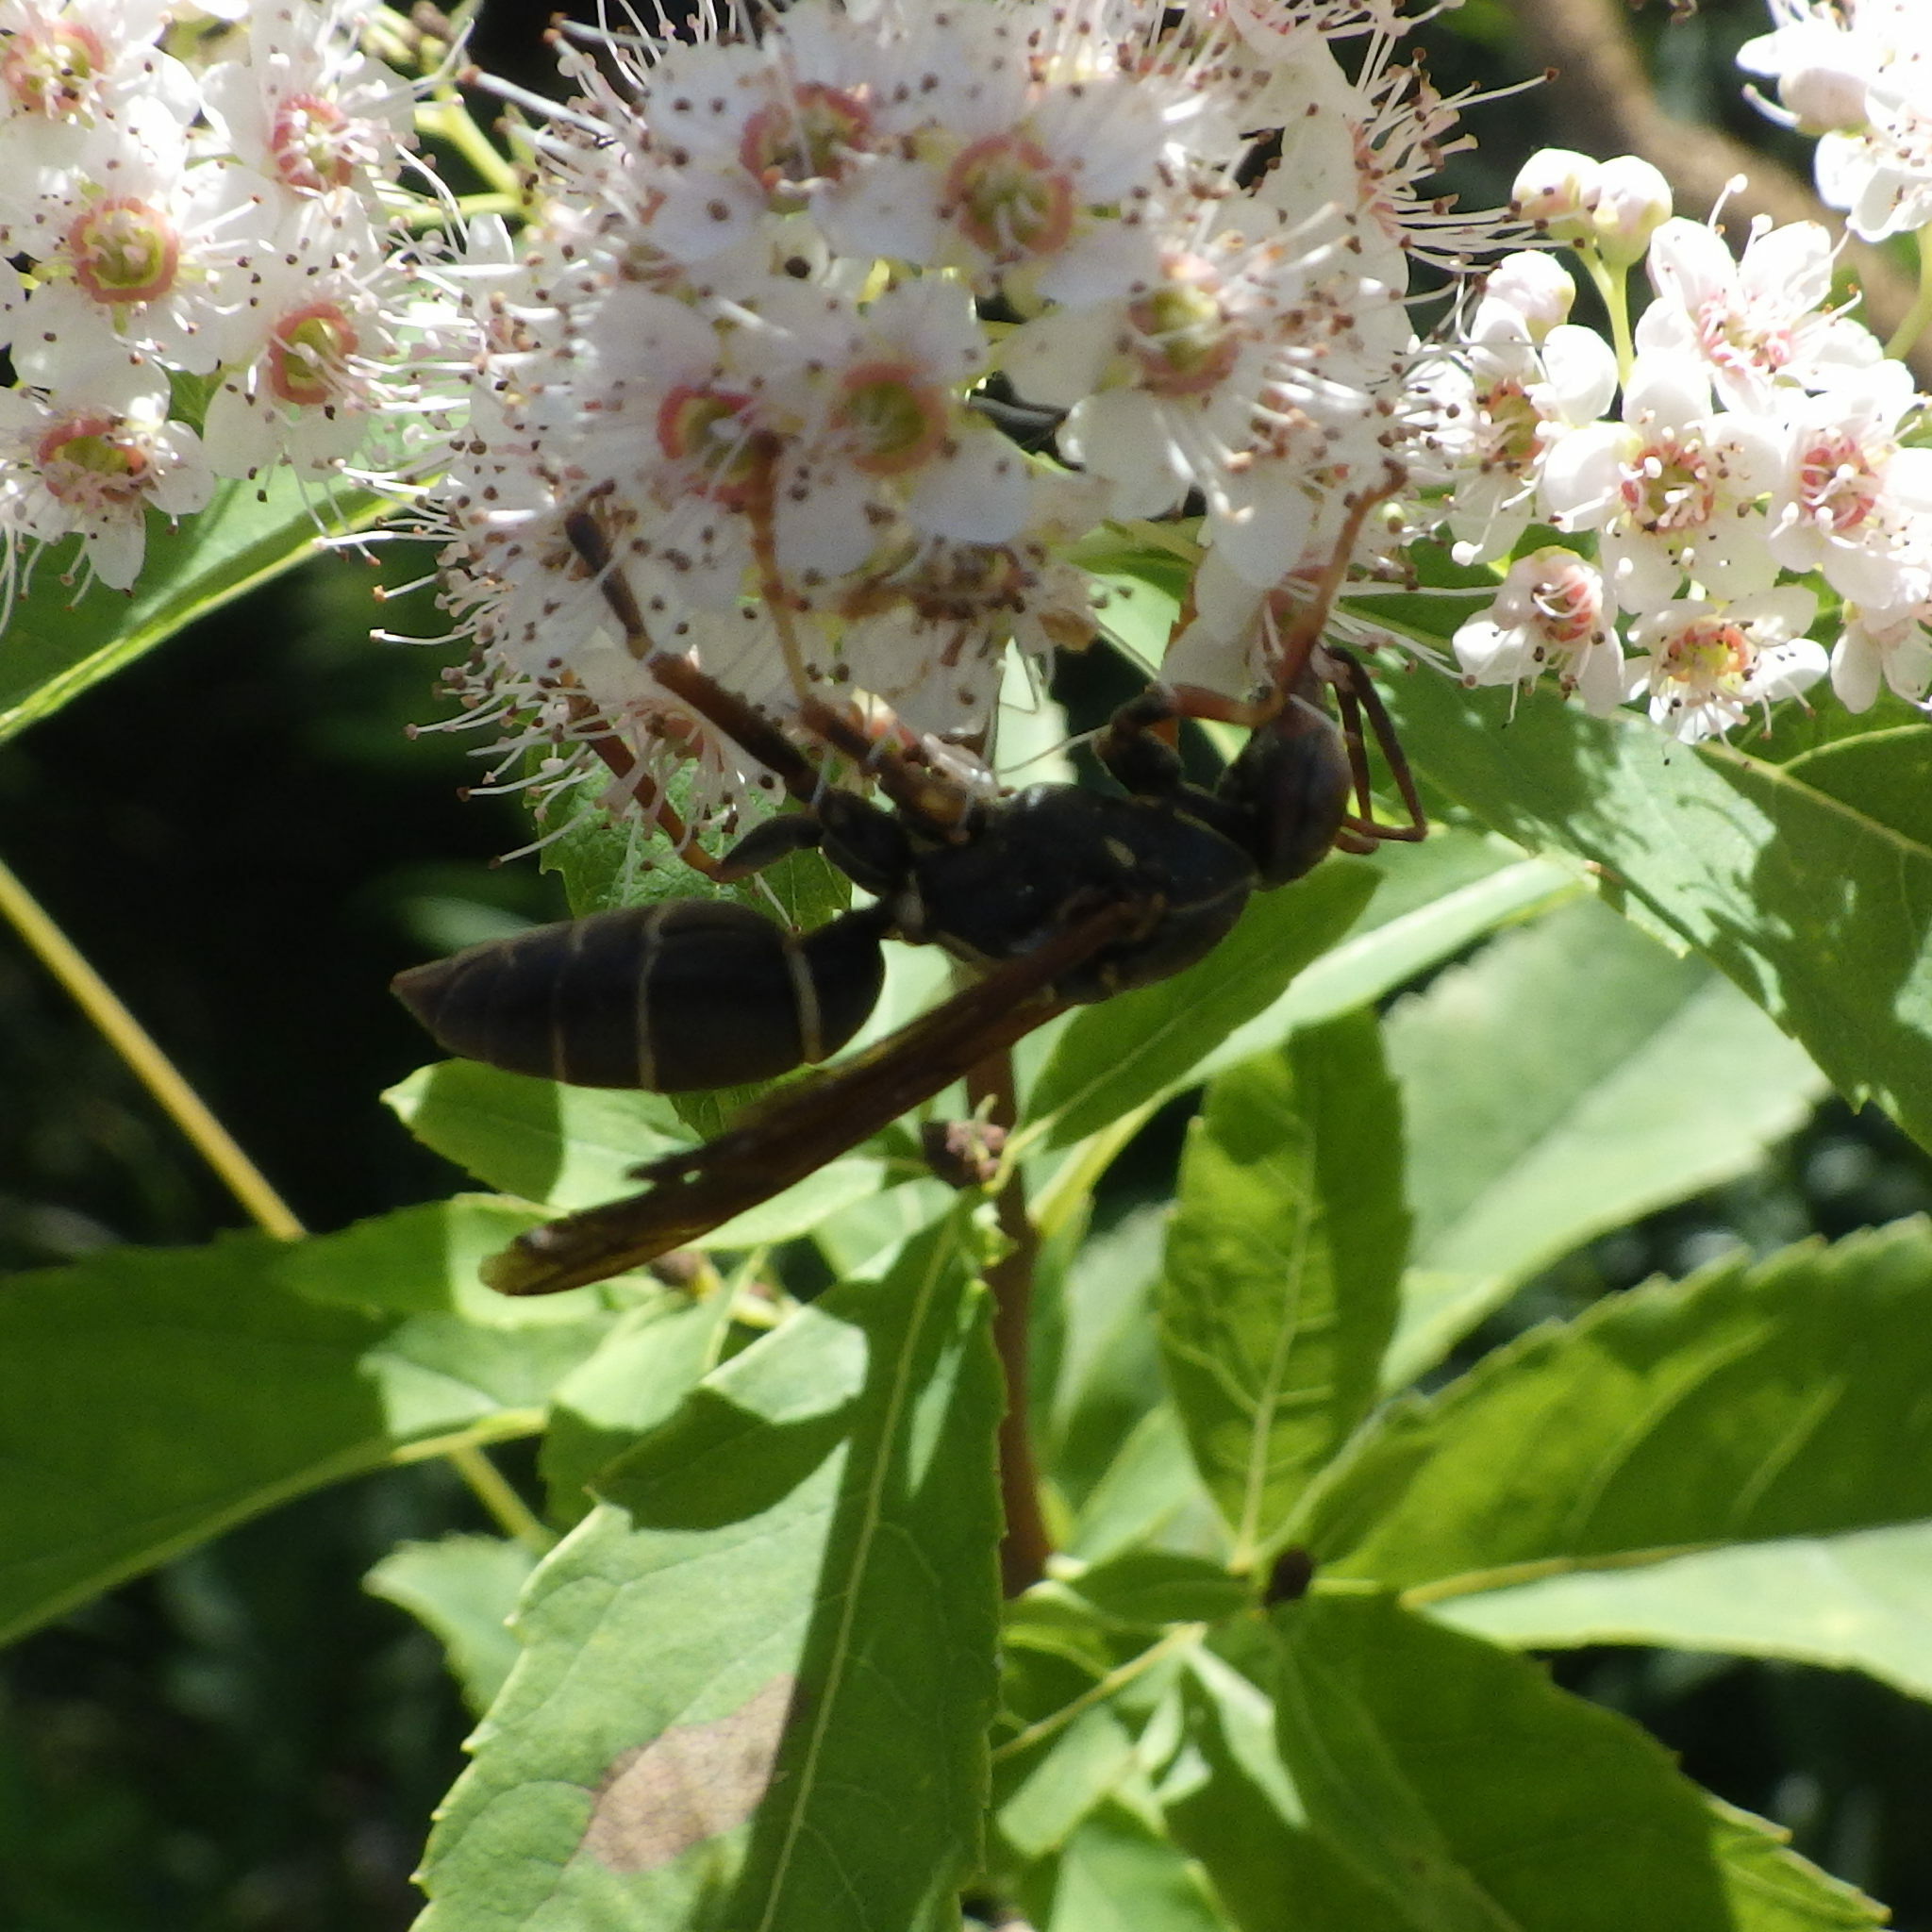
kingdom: Animalia
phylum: Arthropoda
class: Insecta
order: Hymenoptera
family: Eumenidae
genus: Polistes
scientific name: Polistes fuscatus
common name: Dark paper wasp
